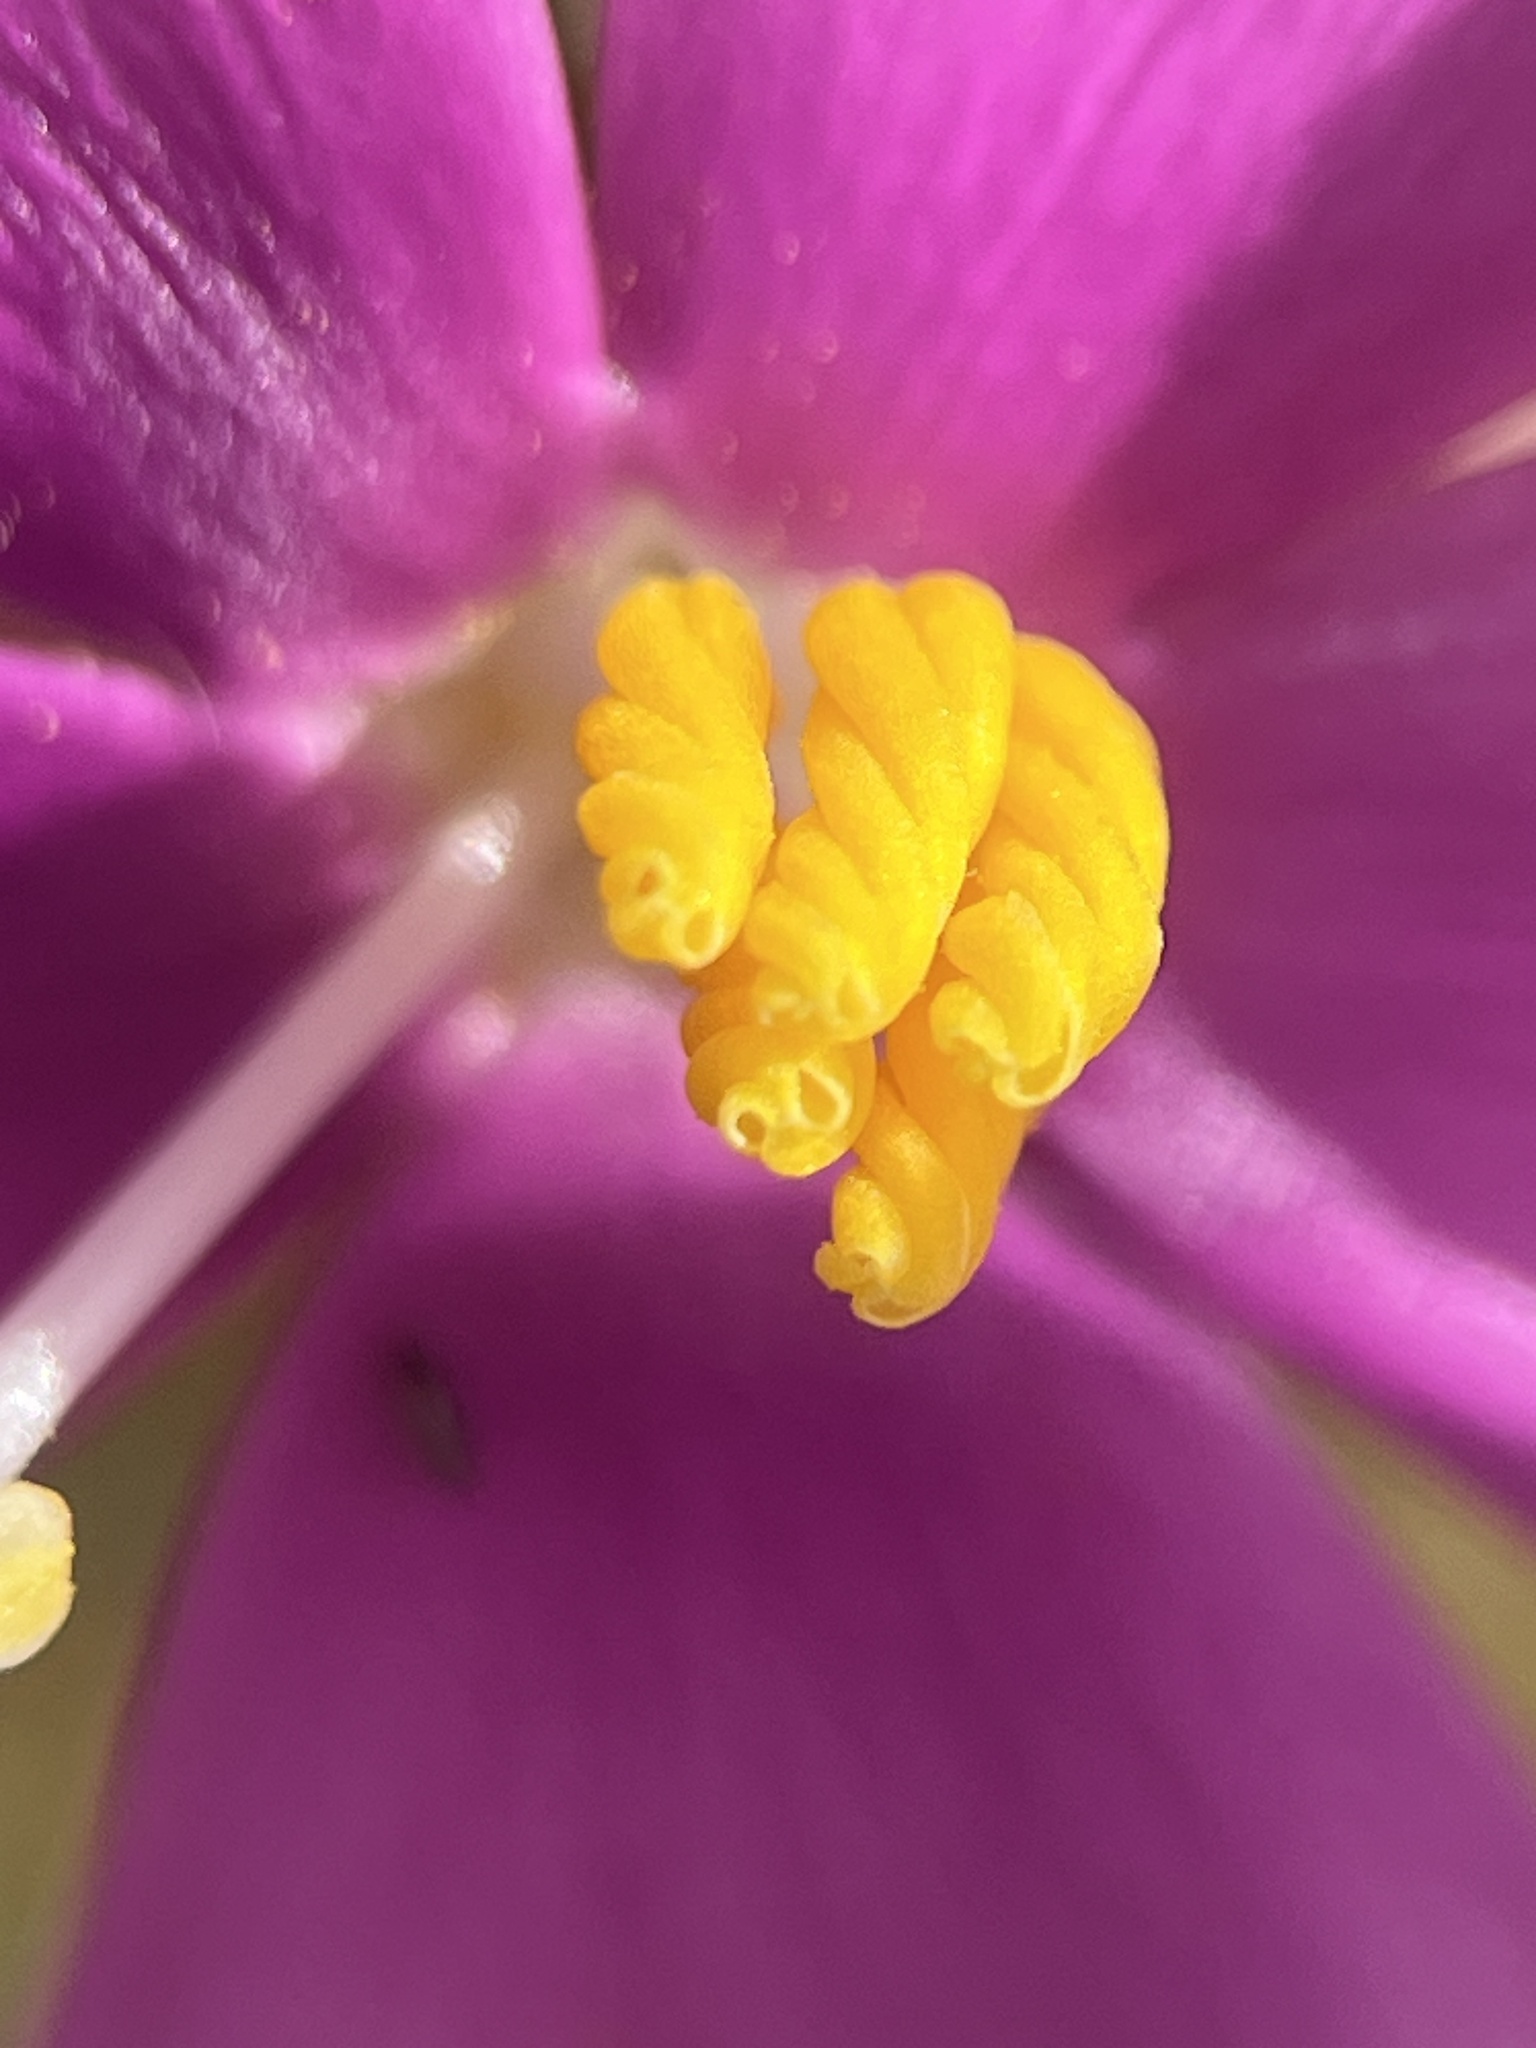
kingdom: Plantae
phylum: Tracheophyta
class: Magnoliopsida
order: Gentianales
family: Gentianaceae
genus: Orphium
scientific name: Orphium frutescens
